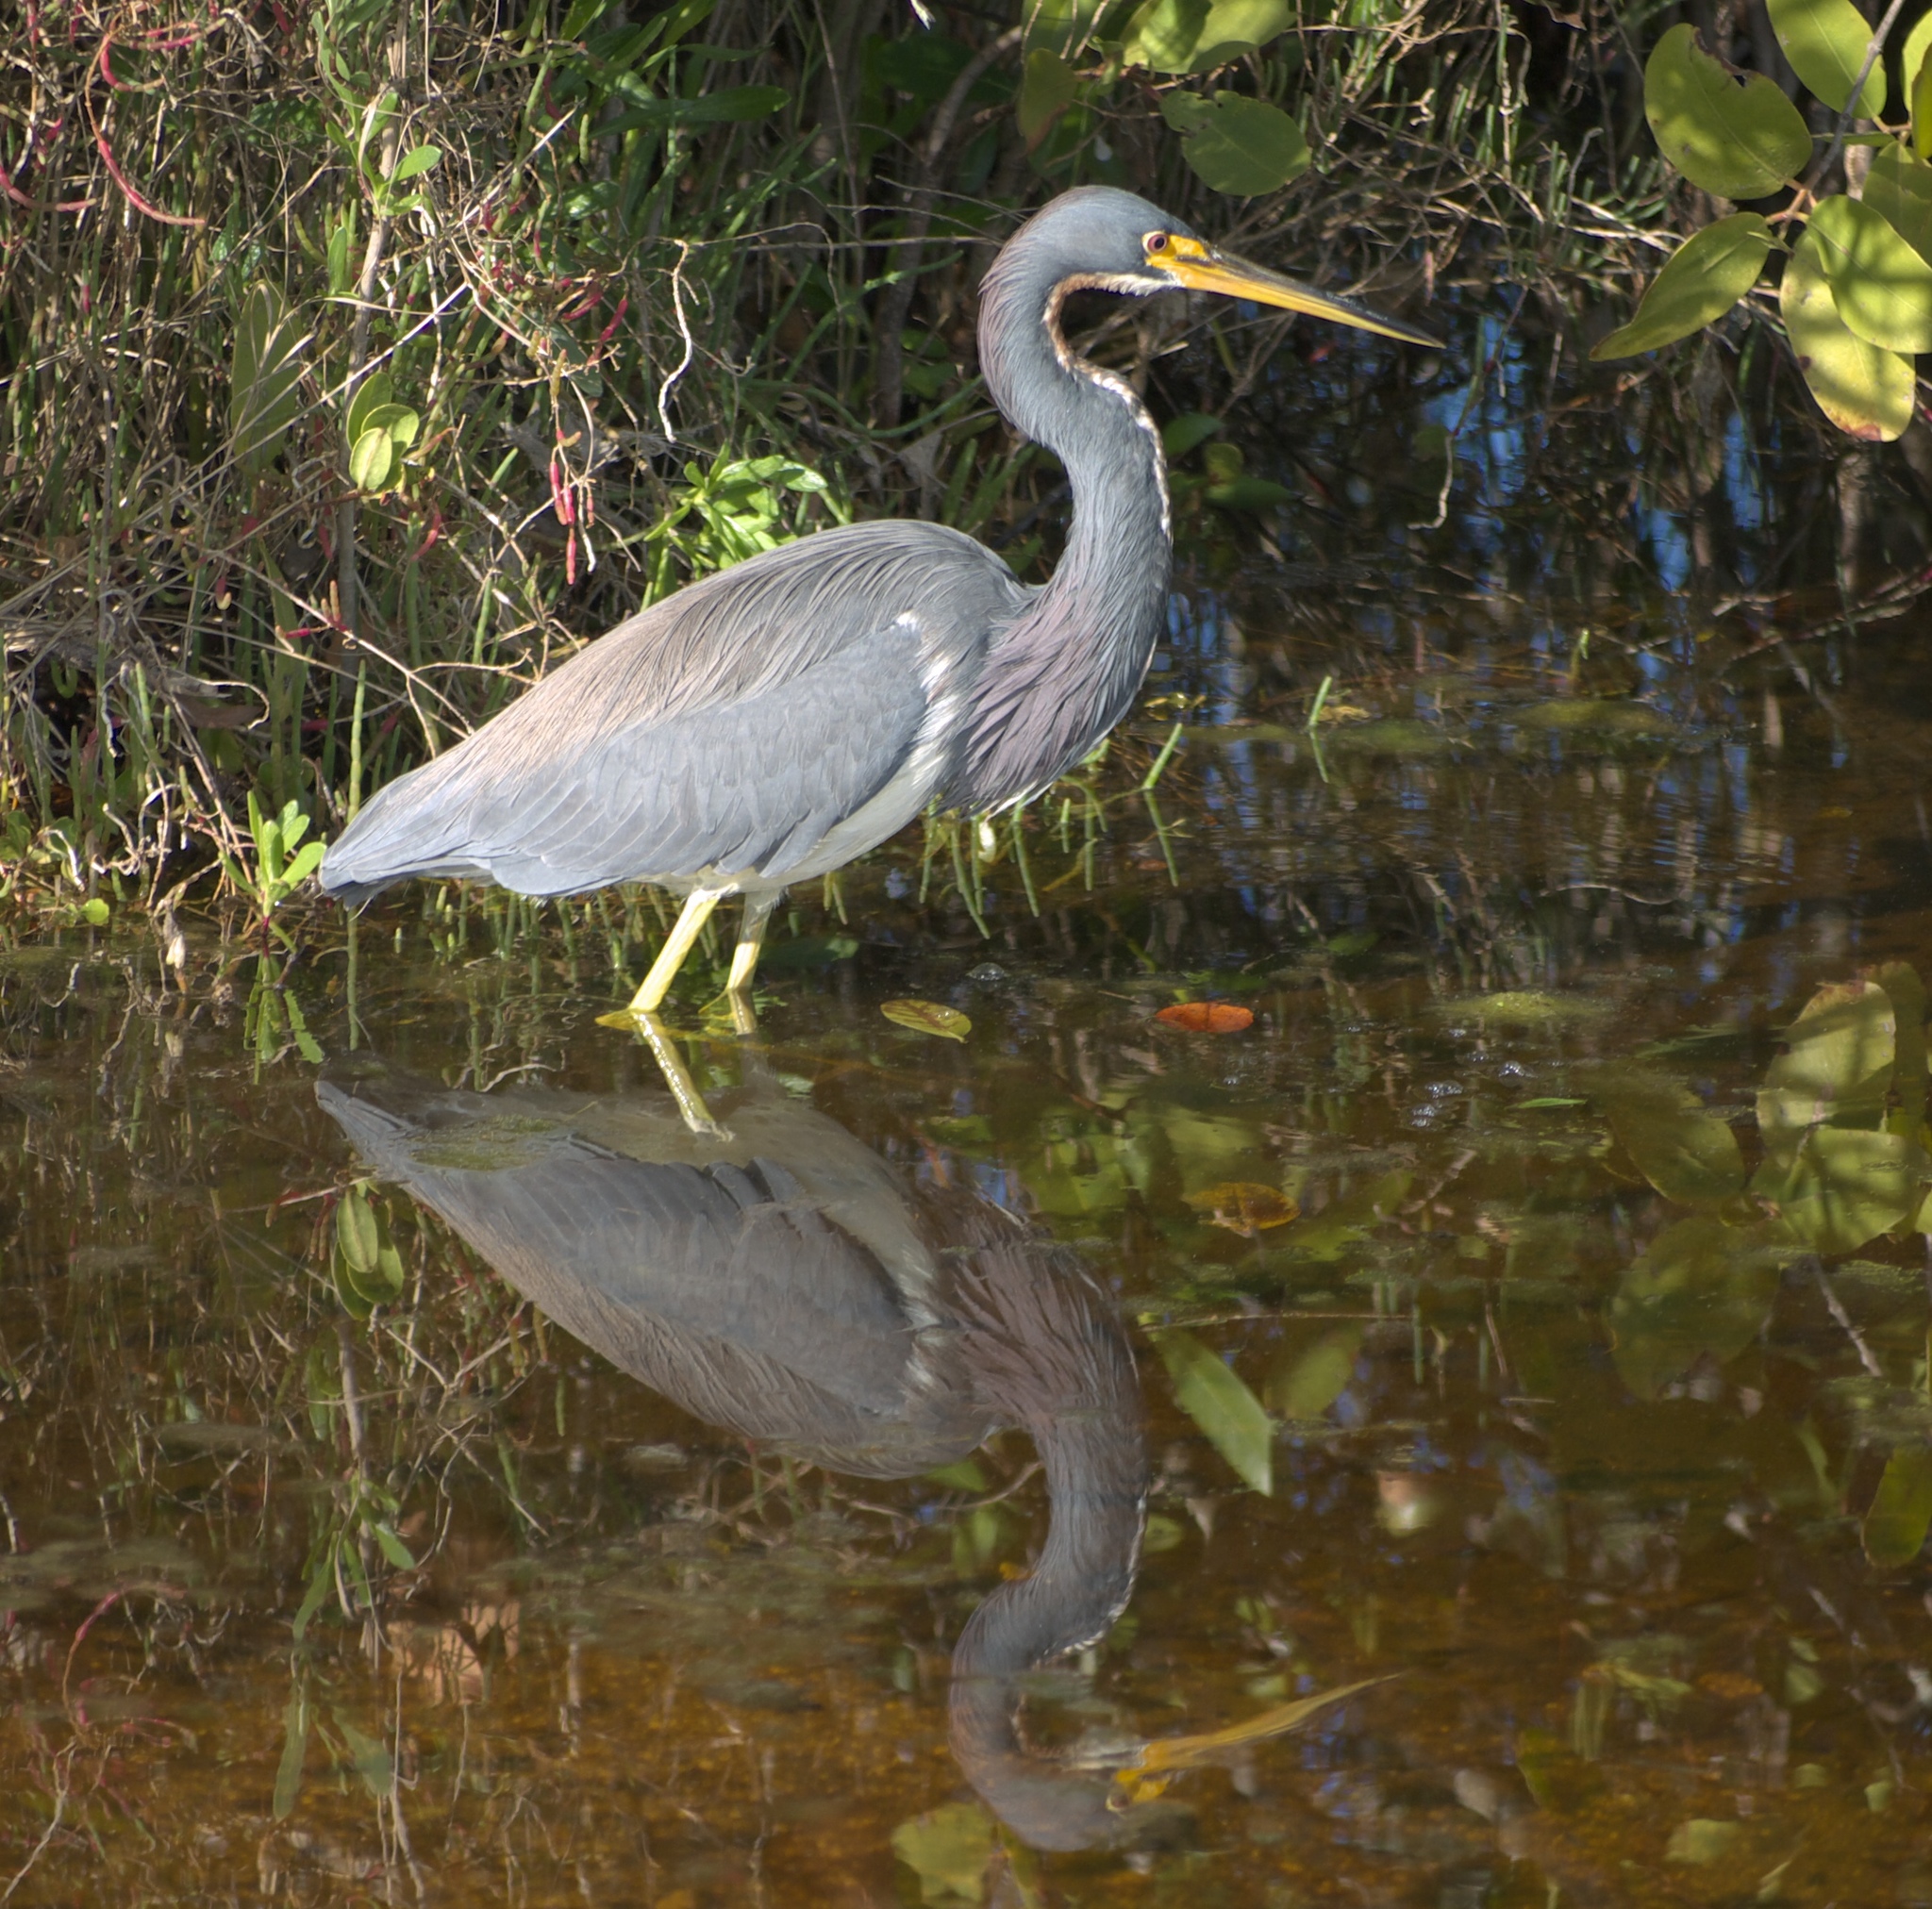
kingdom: Animalia
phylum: Chordata
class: Aves
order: Pelecaniformes
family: Ardeidae
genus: Egretta
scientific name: Egretta tricolor
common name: Tricolored heron
